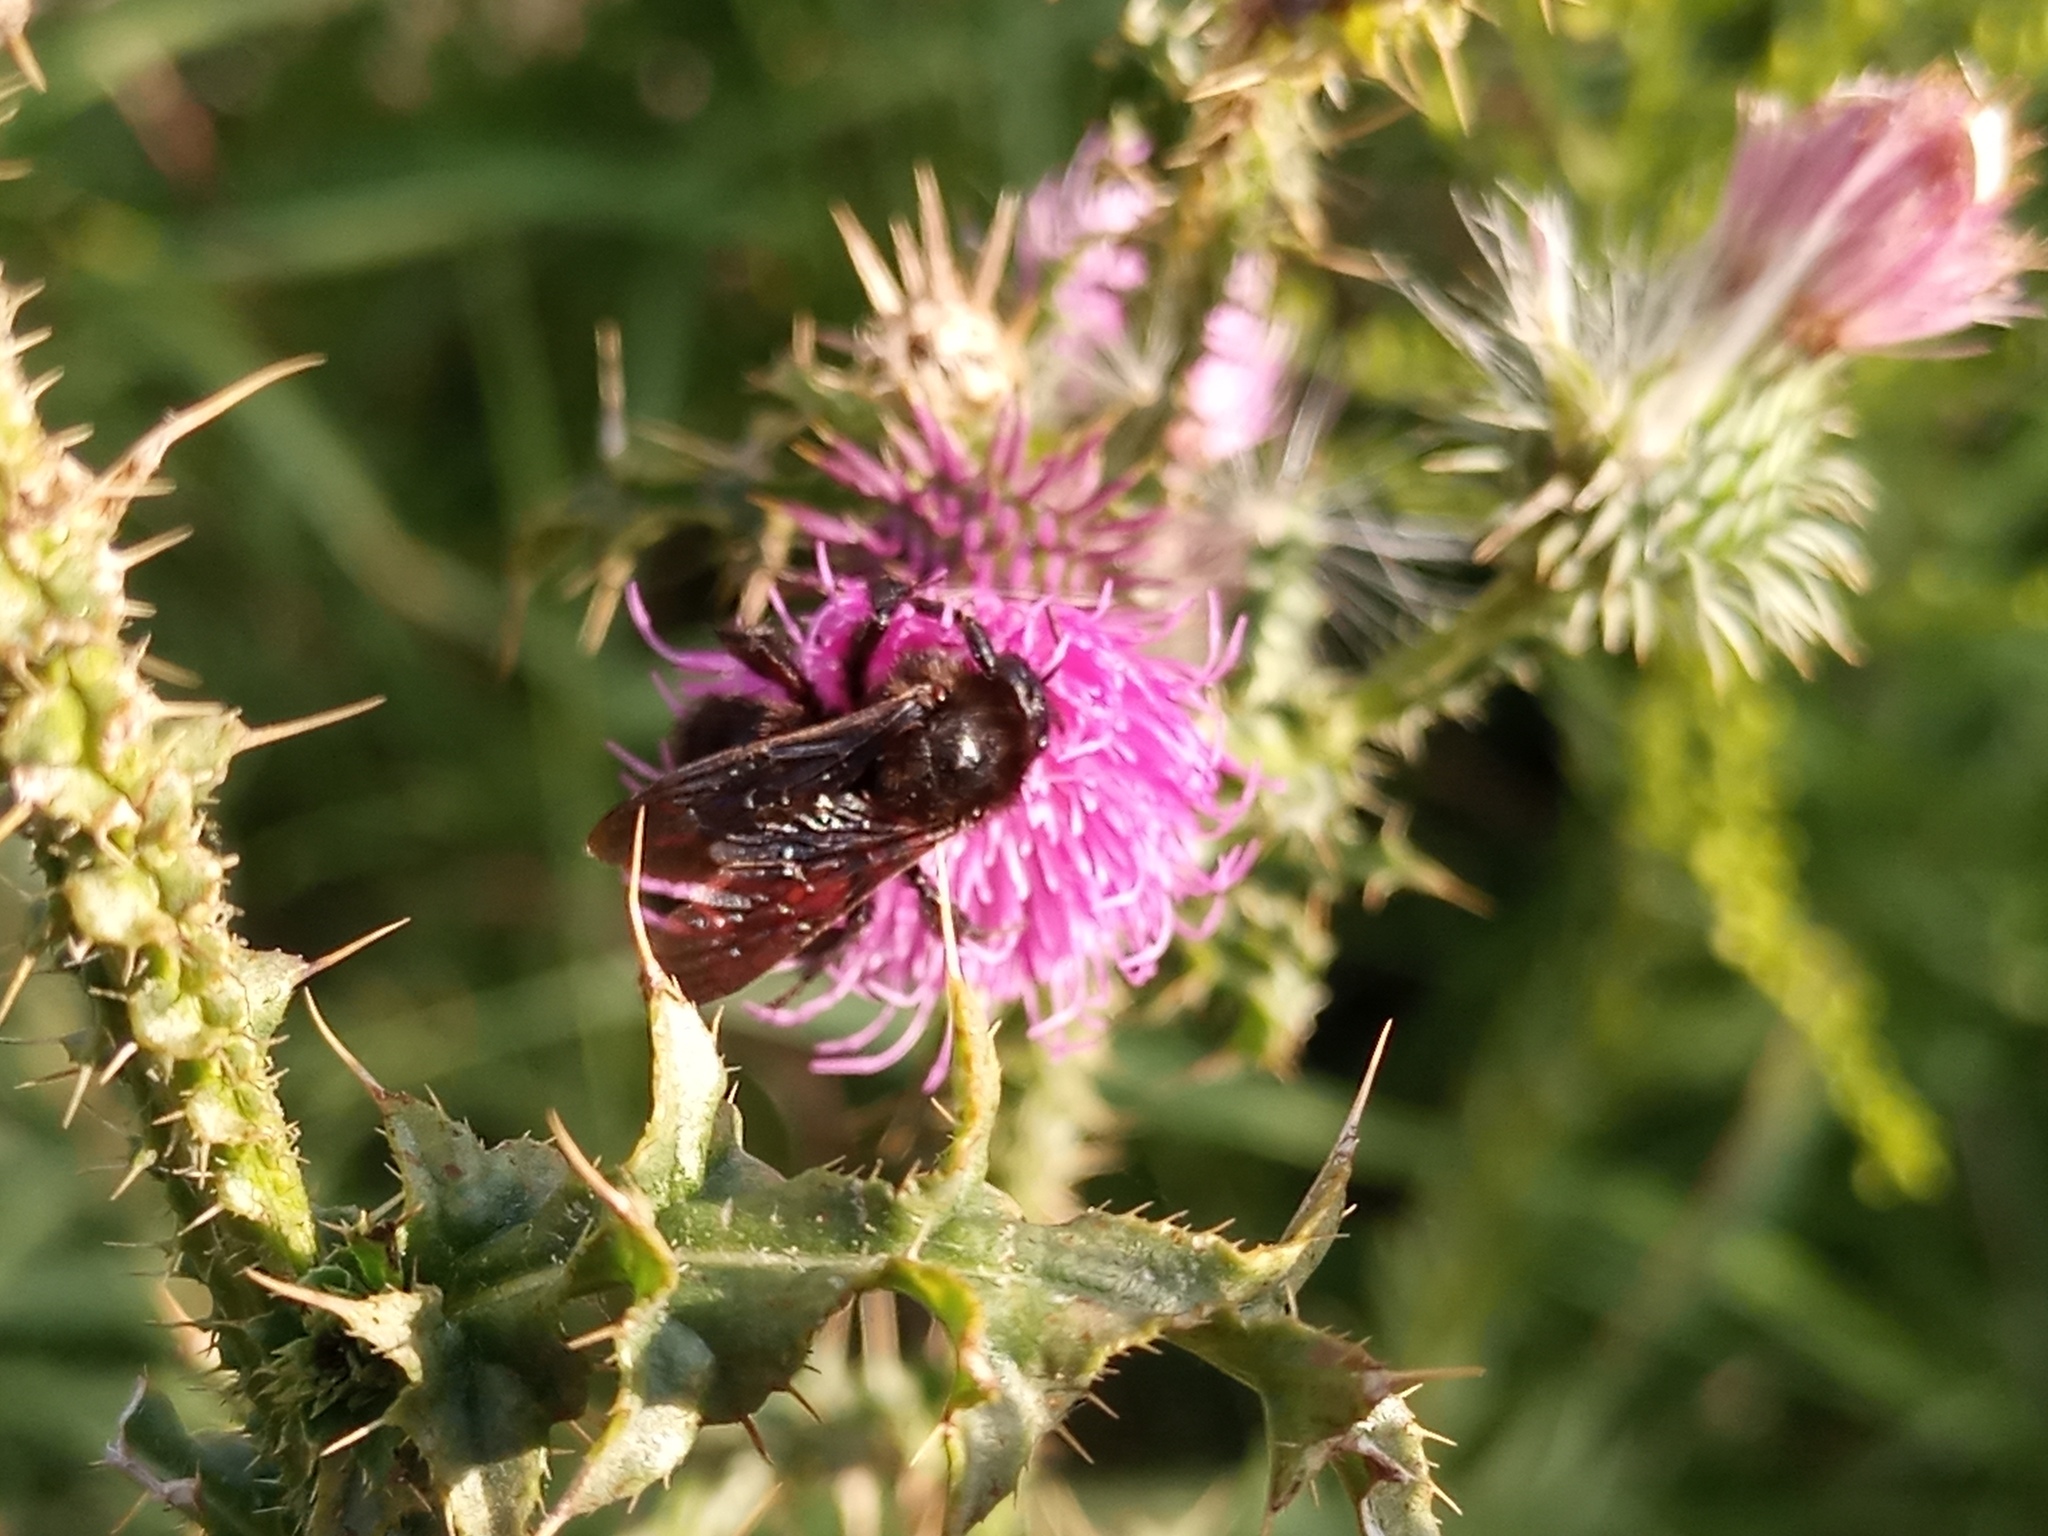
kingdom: Animalia
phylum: Arthropoda
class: Insecta
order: Hymenoptera
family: Apidae
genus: Bombus
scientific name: Bombus pauloensis
